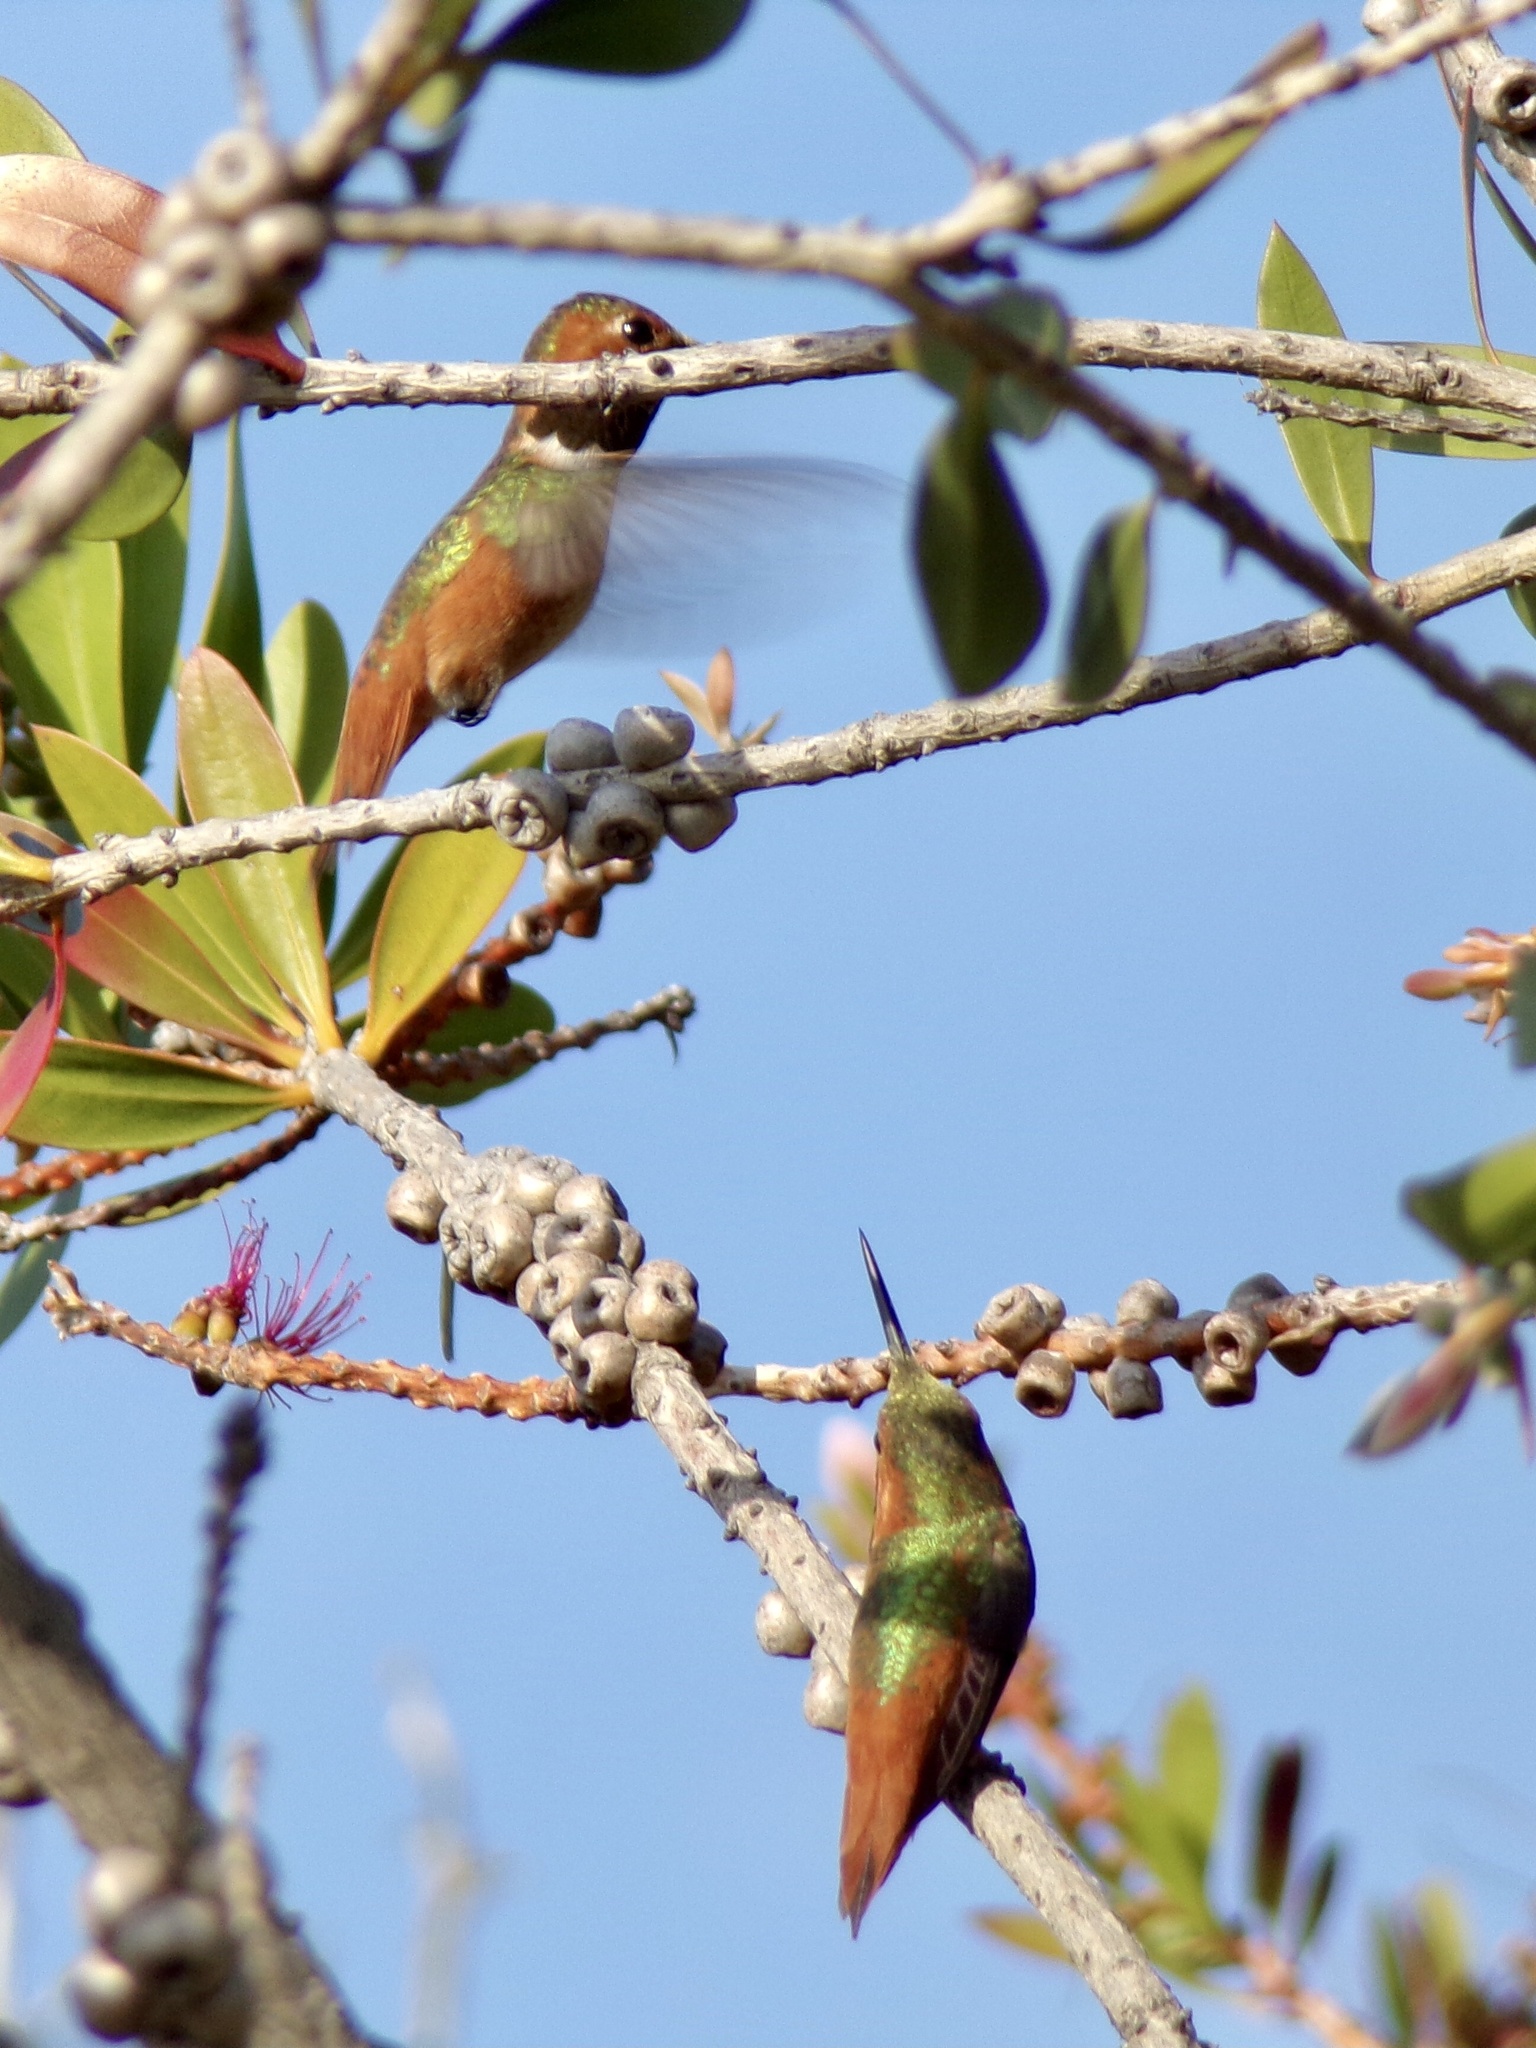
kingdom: Animalia
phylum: Chordata
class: Aves
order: Apodiformes
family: Trochilidae
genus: Selasphorus
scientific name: Selasphorus sasin
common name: Allen's hummingbird
